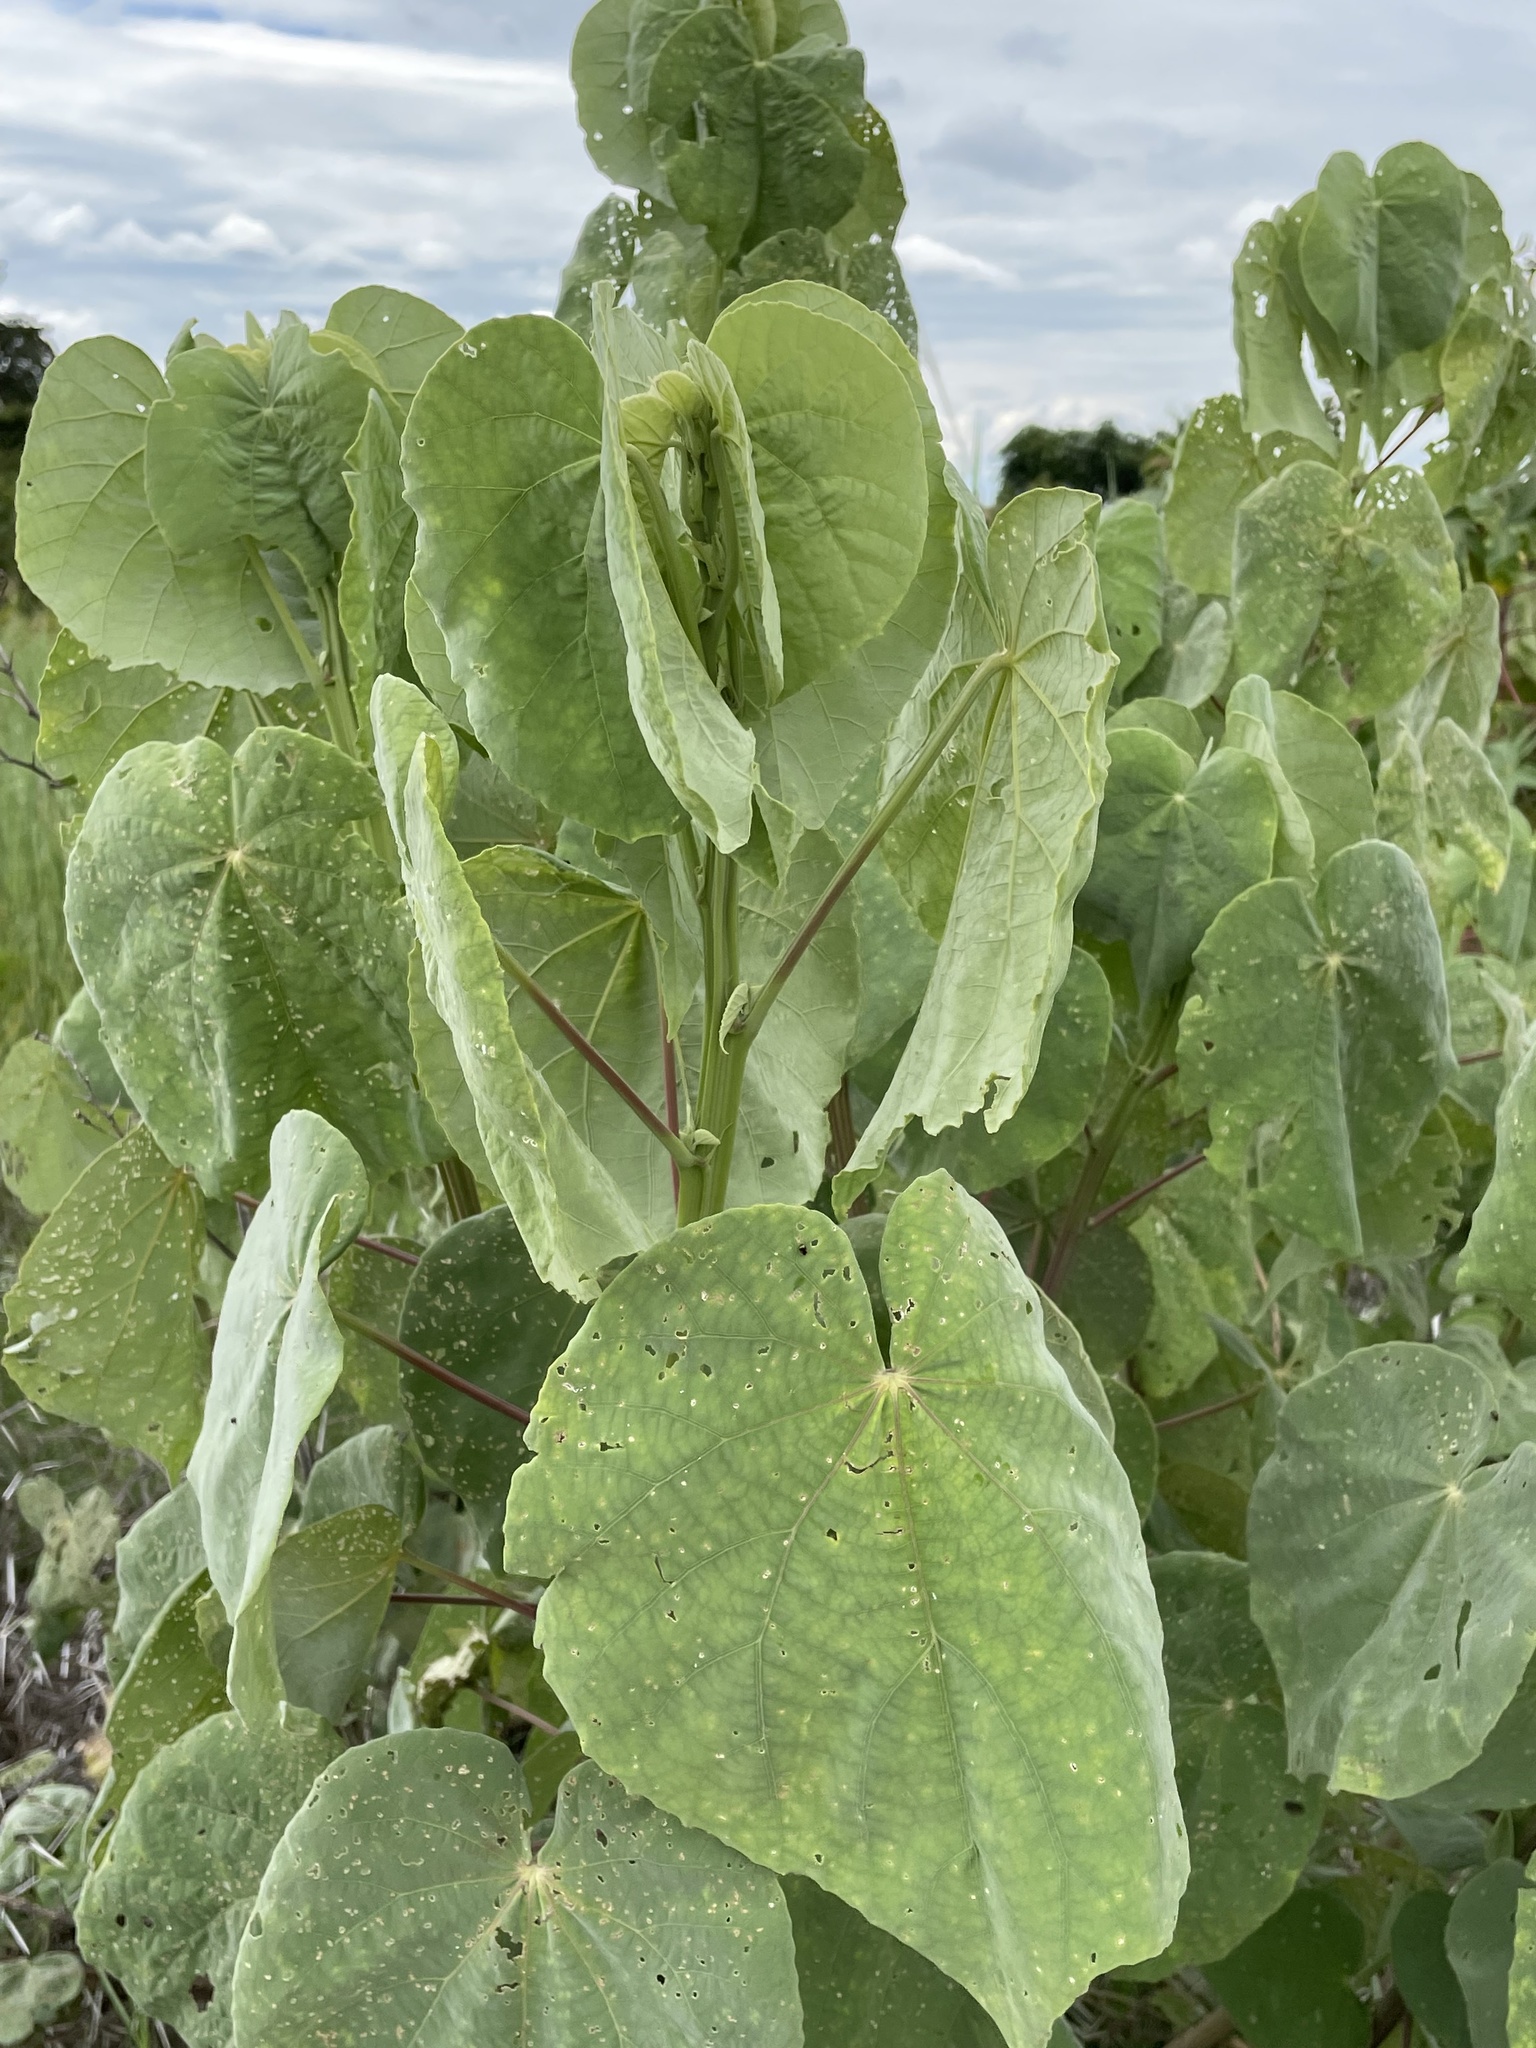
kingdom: Plantae
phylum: Tracheophyta
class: Magnoliopsida
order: Malvales
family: Malvaceae
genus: Abutilon
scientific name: Abutilon angulatum
